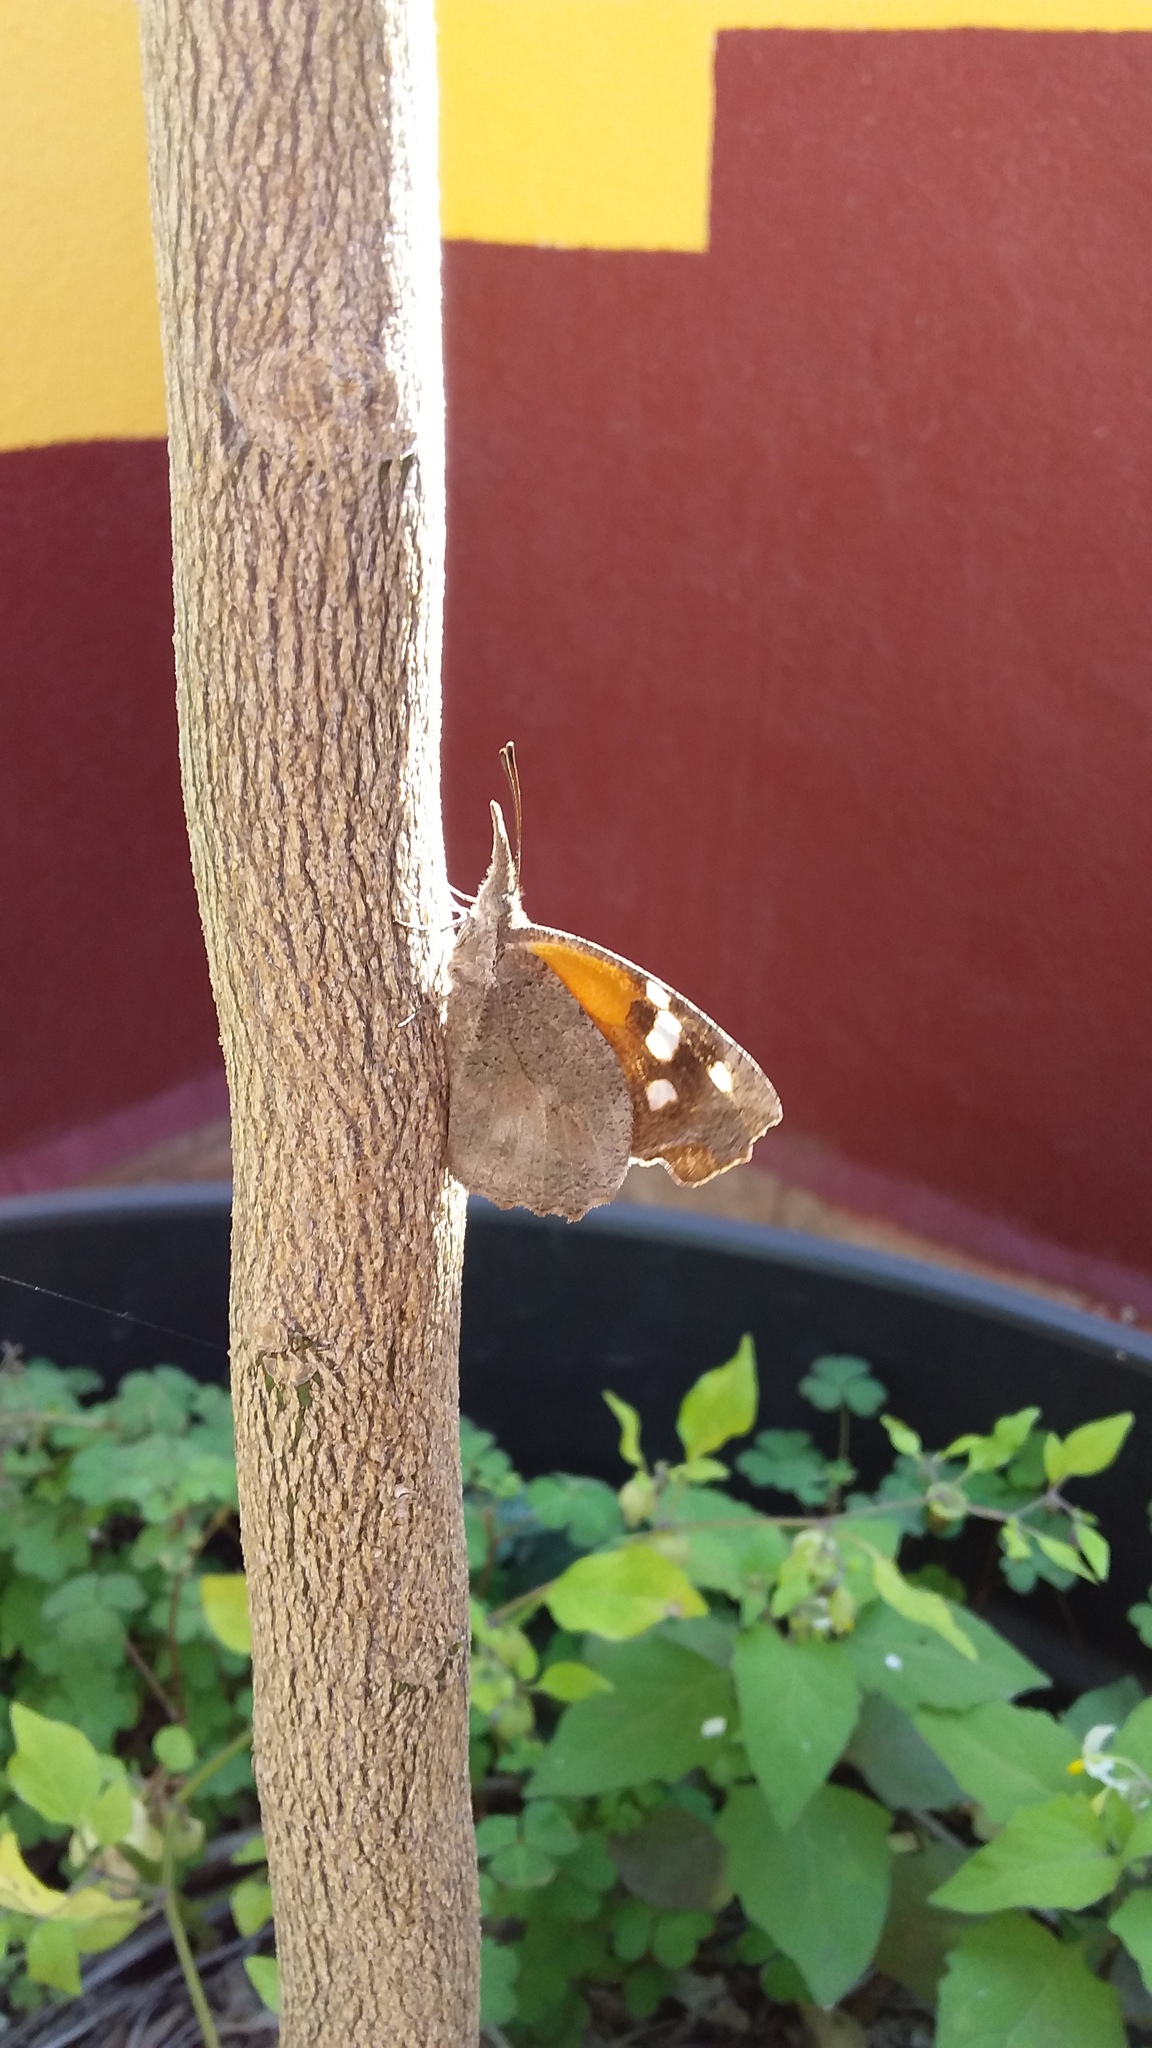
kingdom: Animalia
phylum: Arthropoda
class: Insecta
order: Lepidoptera
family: Nymphalidae
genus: Libytheana
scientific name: Libytheana carinenta
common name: American snout
